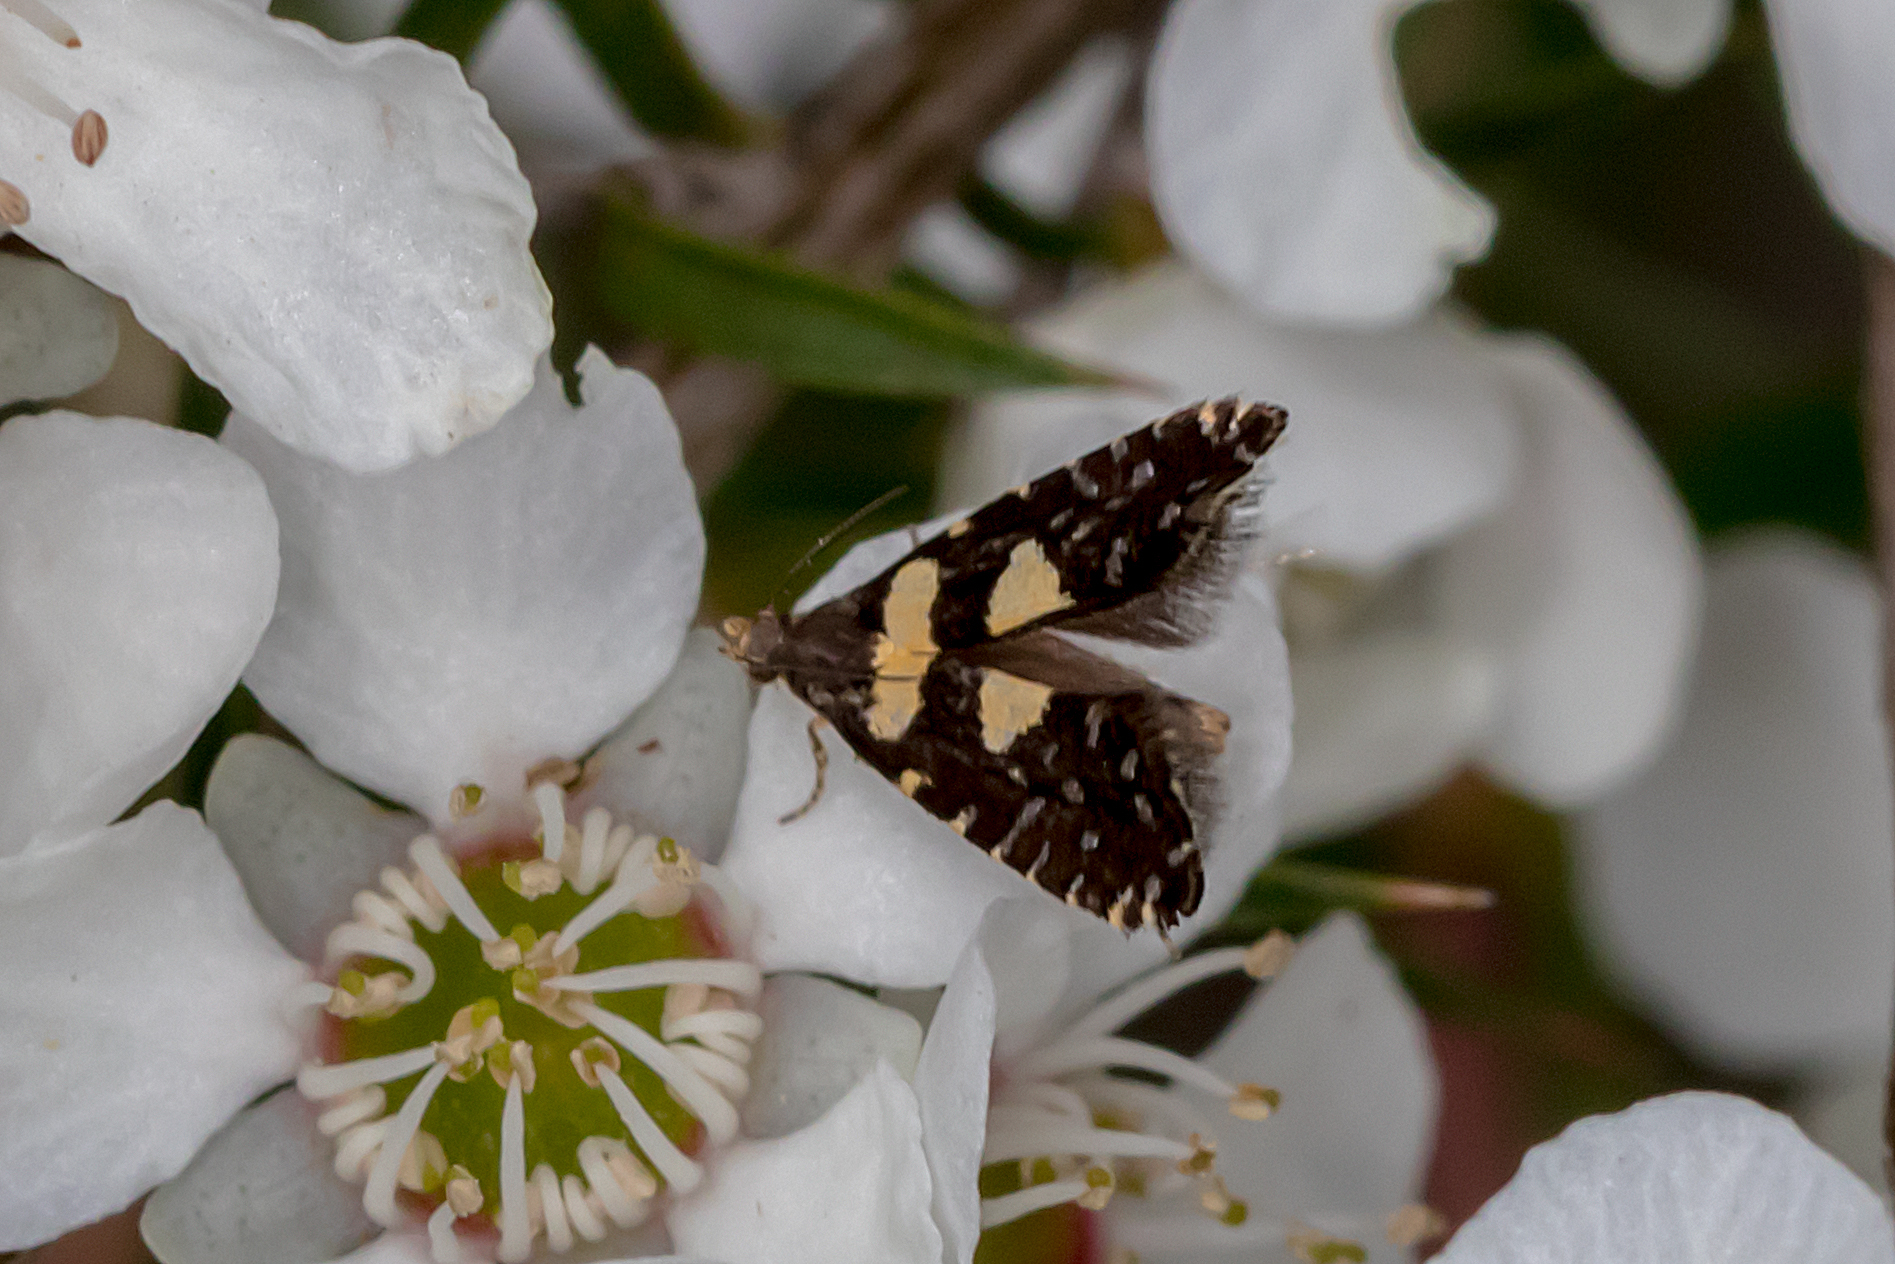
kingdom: Animalia
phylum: Arthropoda
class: Insecta
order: Lepidoptera
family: Glyphipterigidae
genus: Glyphipterix
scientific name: Glyphipterix chrysoplanetis
